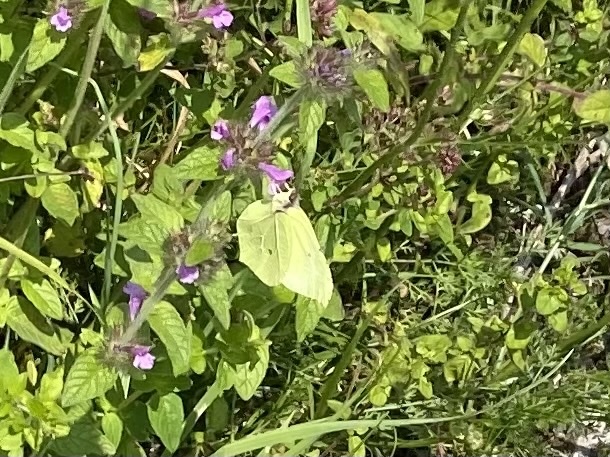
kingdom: Animalia
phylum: Arthropoda
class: Insecta
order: Lepidoptera
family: Pieridae
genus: Gonepteryx
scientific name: Gonepteryx rhamni
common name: Brimstone
